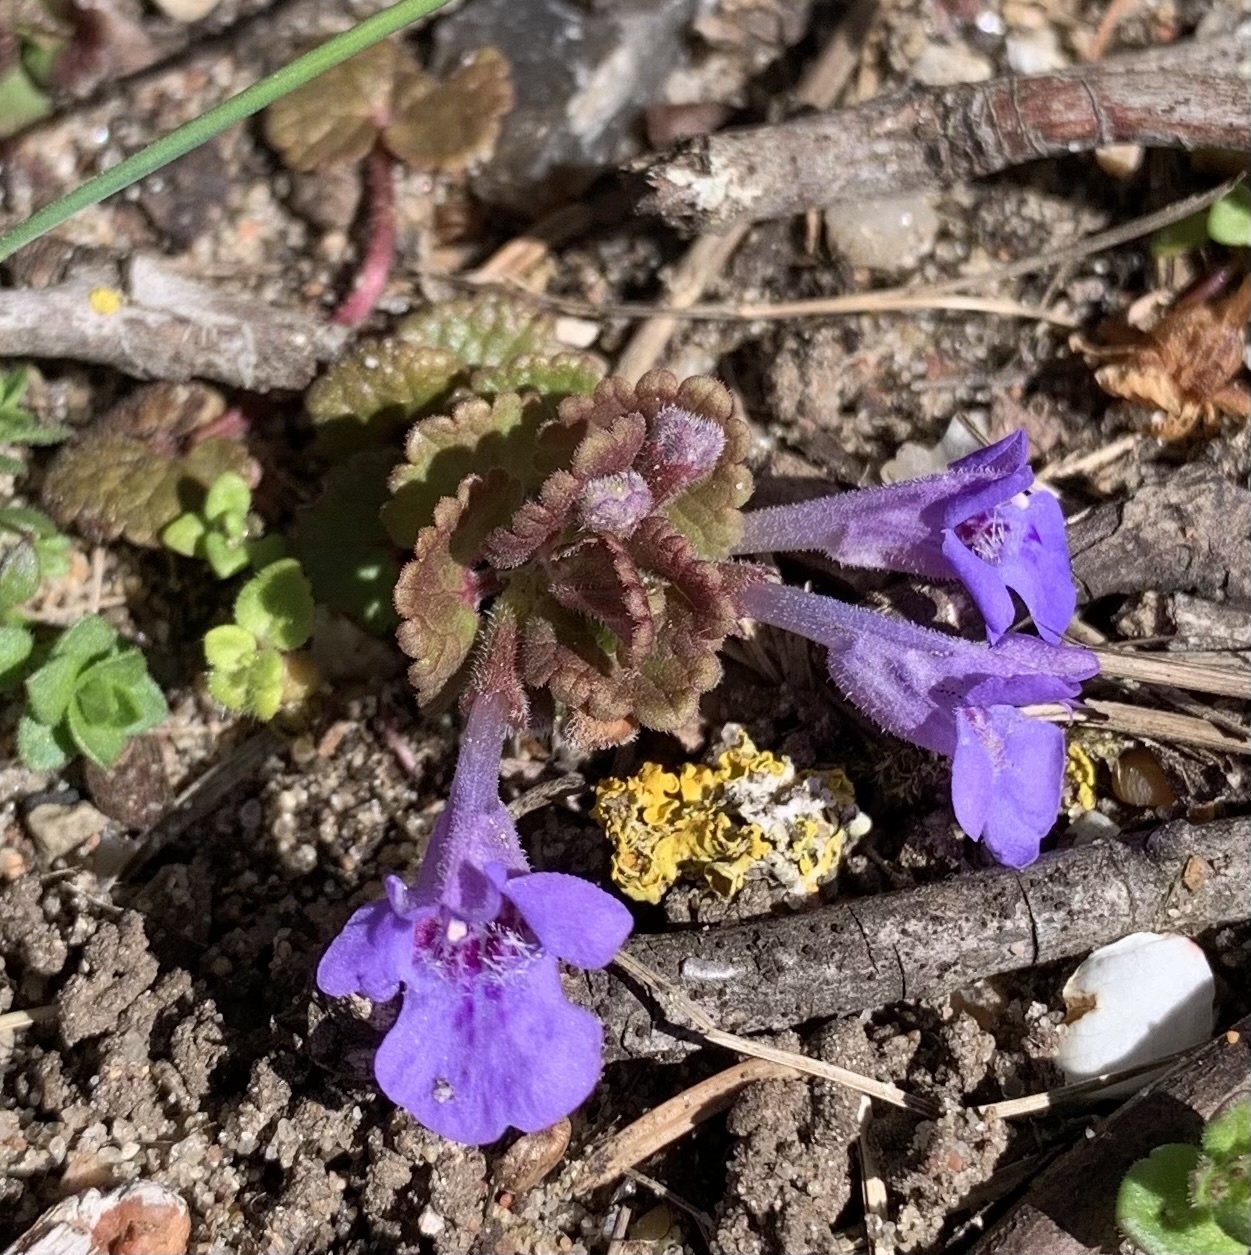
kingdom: Plantae
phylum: Tracheophyta
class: Magnoliopsida
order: Lamiales
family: Lamiaceae
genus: Glechoma
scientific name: Glechoma hederacea
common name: Ground ivy
